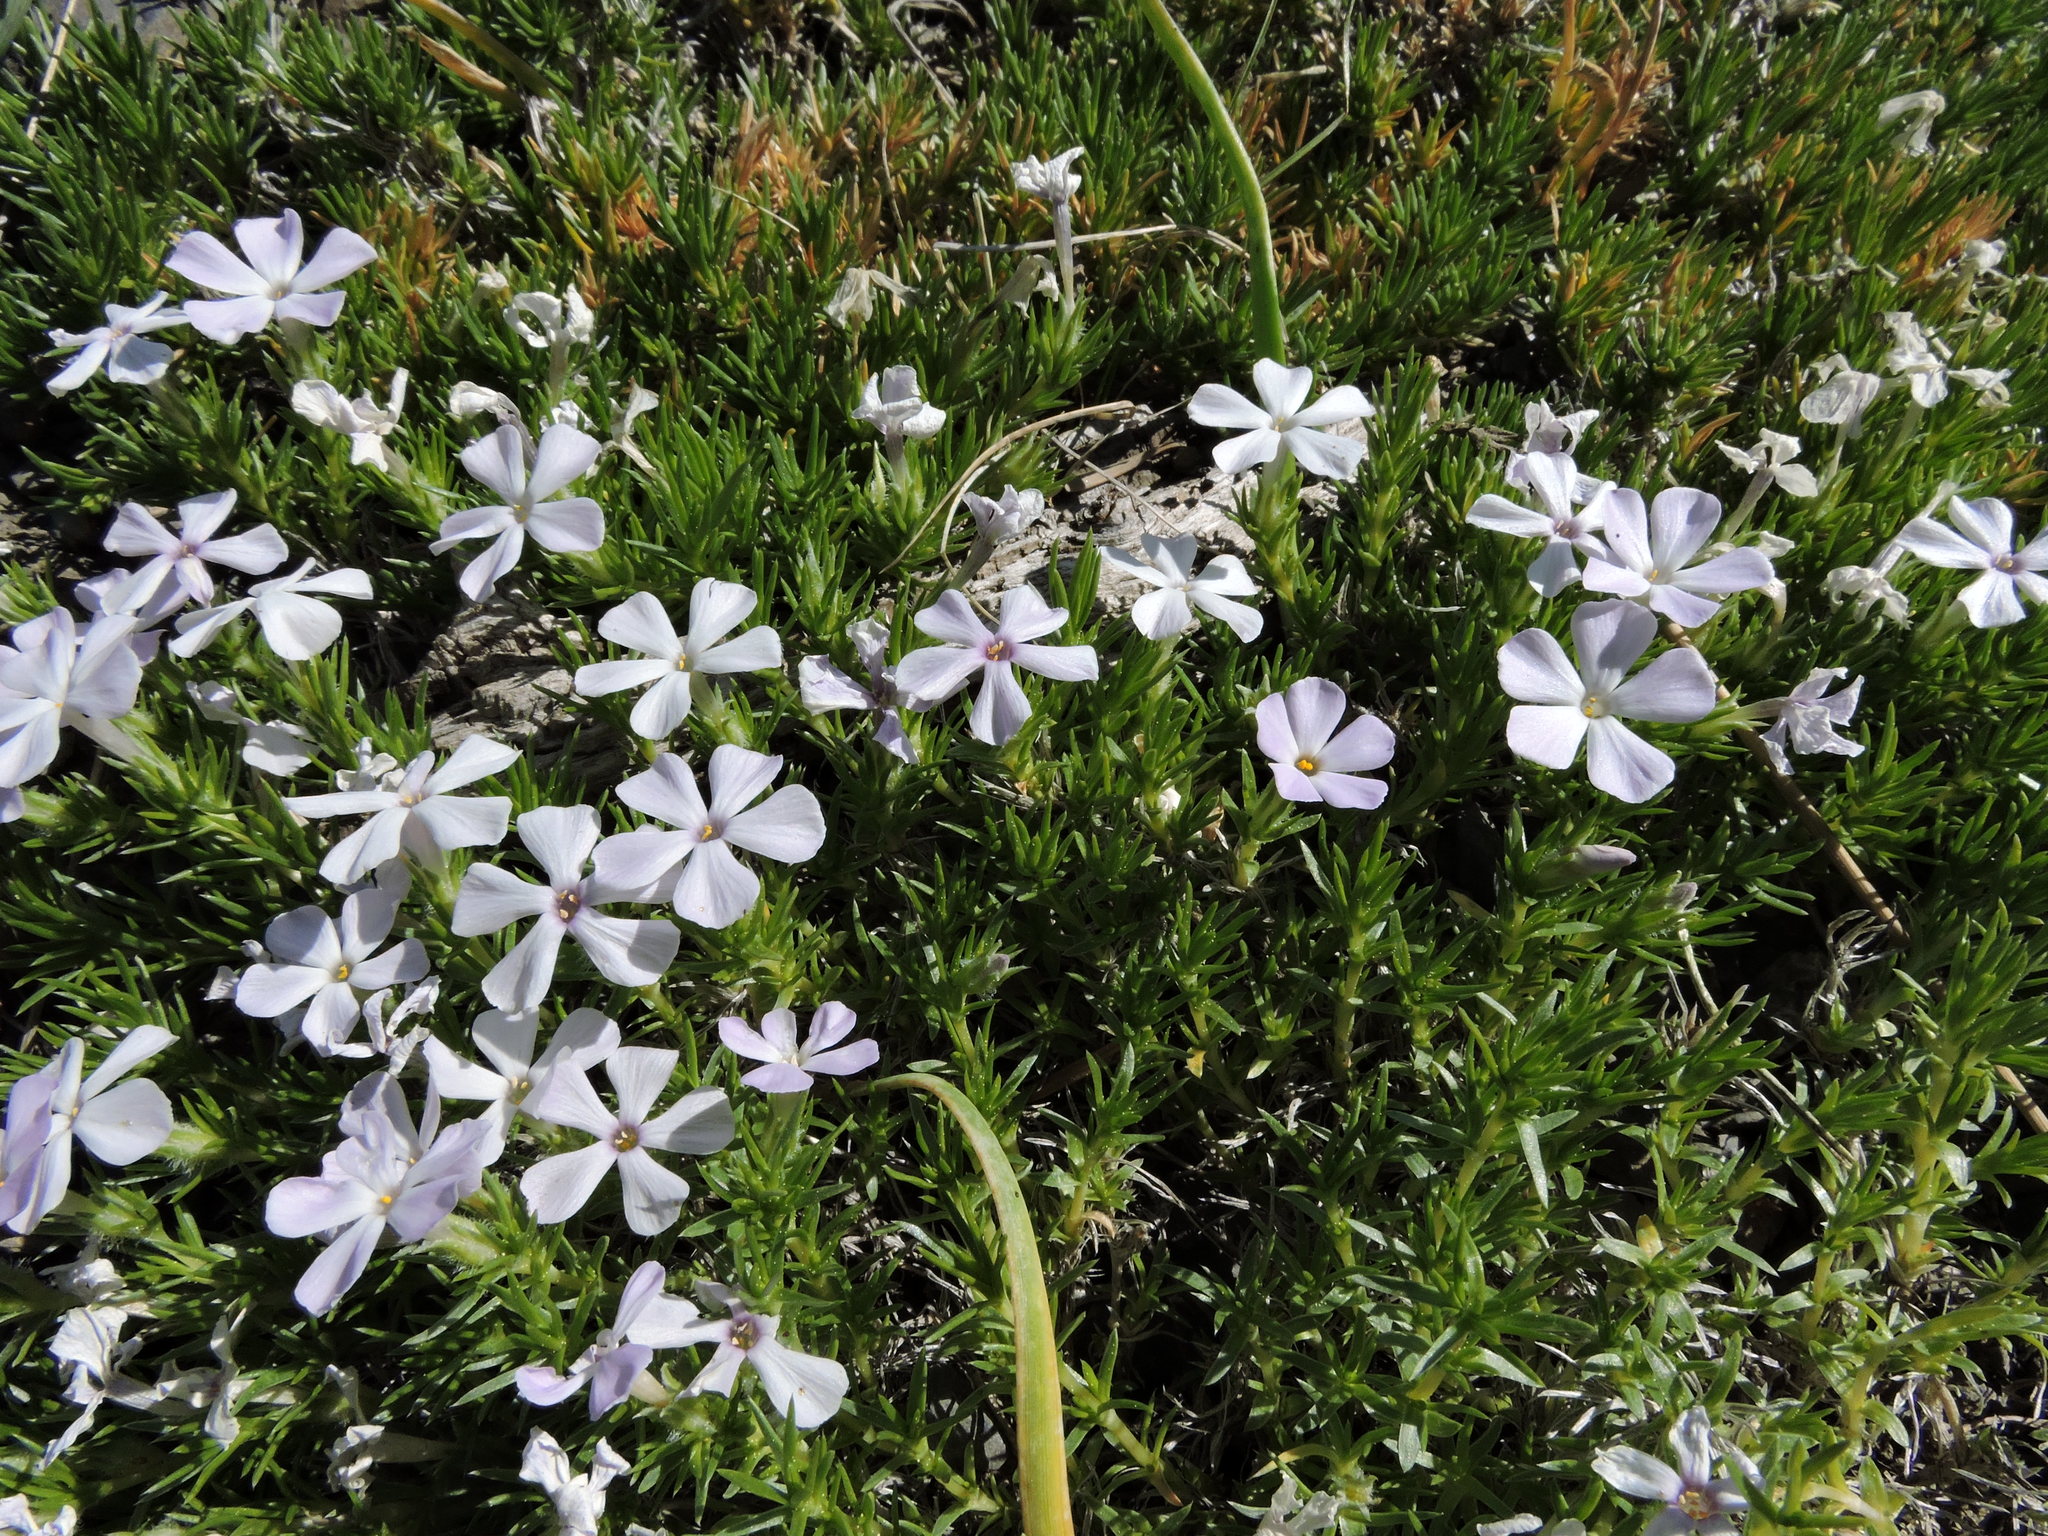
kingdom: Plantae
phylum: Tracheophyta
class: Magnoliopsida
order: Ericales
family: Polemoniaceae
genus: Phlox
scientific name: Phlox diffusa
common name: Mat phlox
